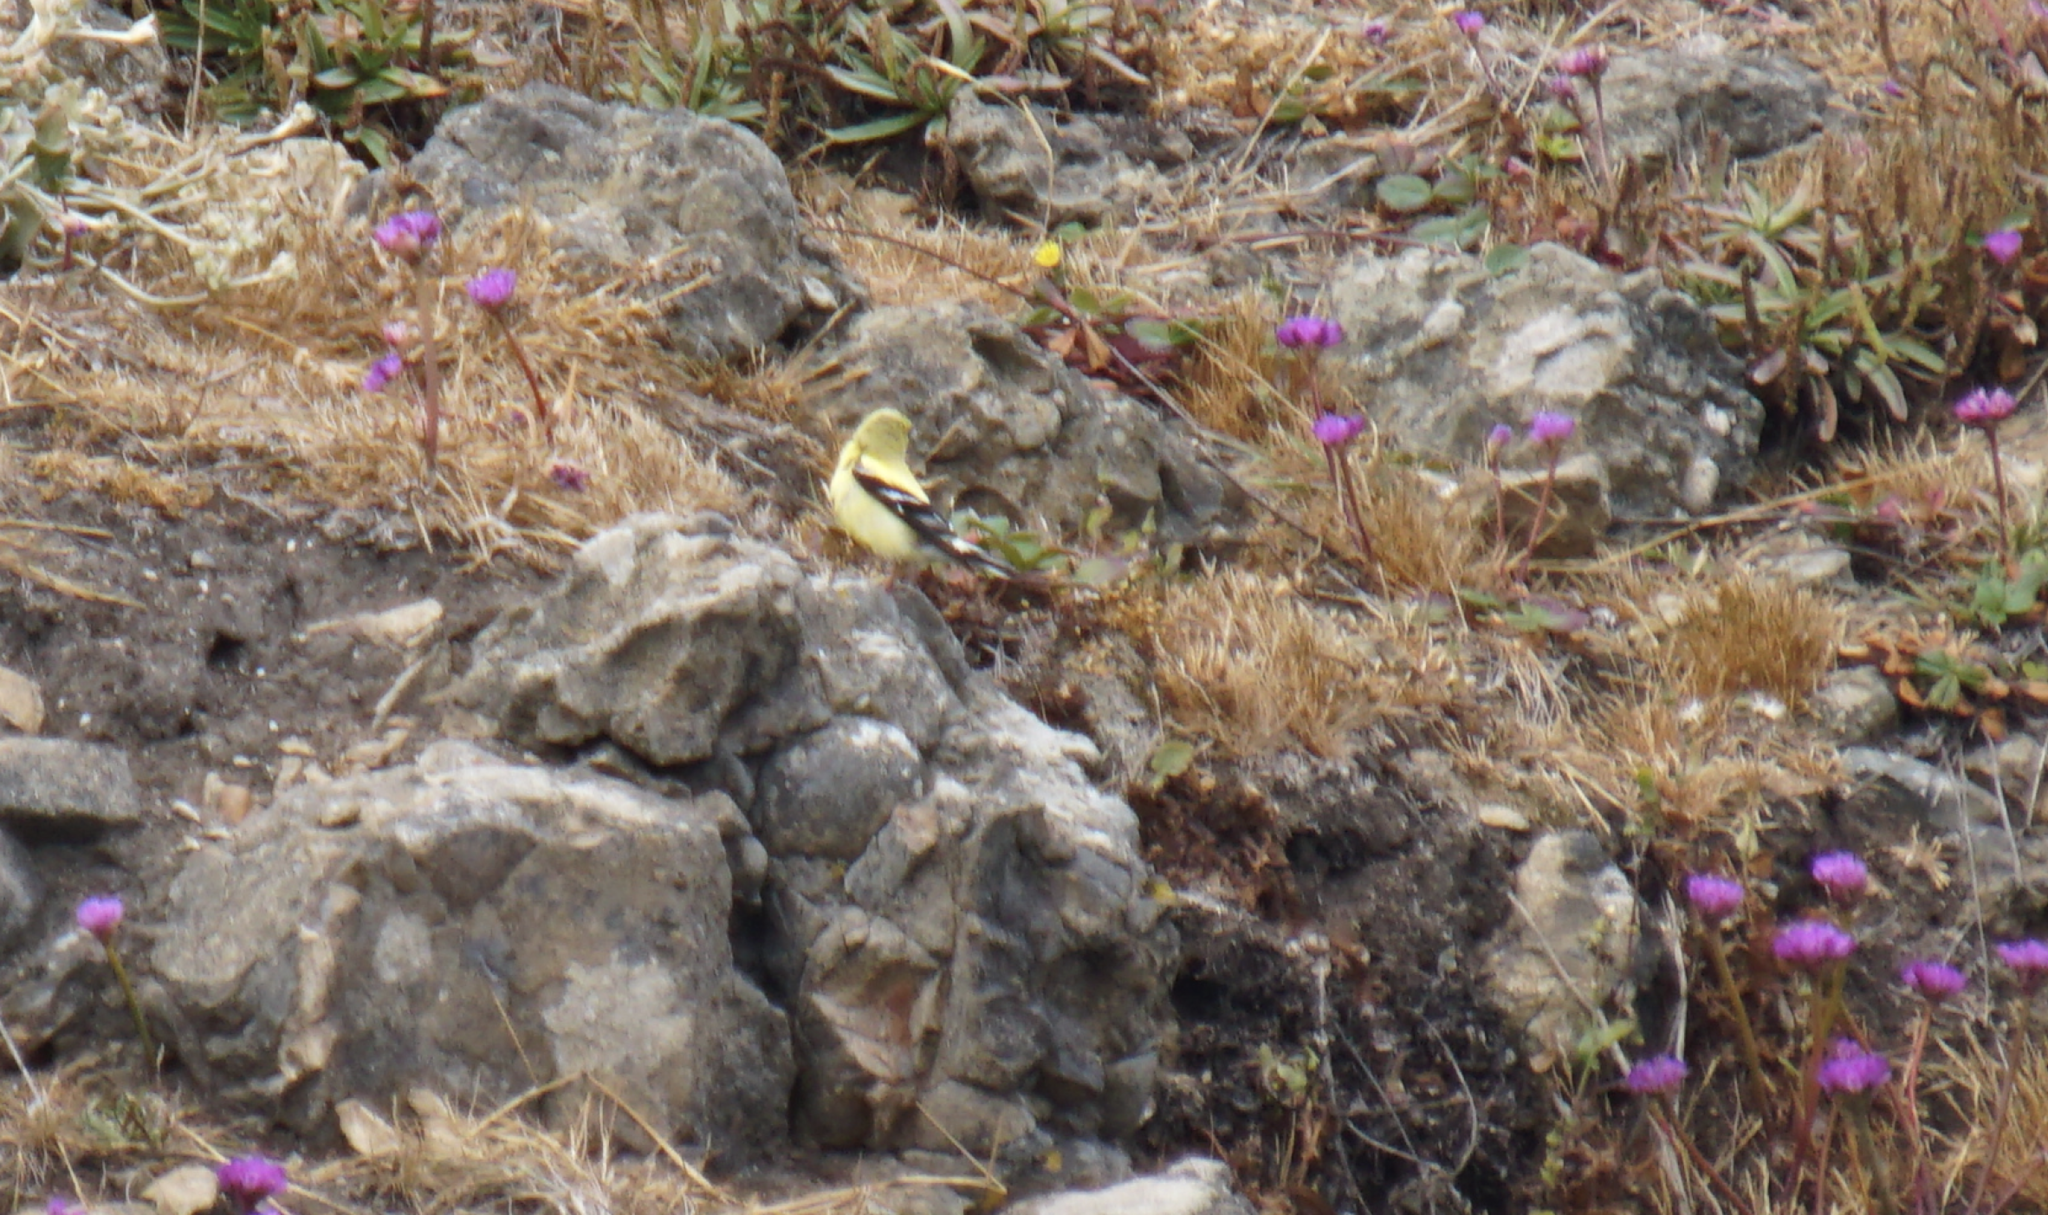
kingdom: Animalia
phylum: Chordata
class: Aves
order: Passeriformes
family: Fringillidae
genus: Spinus
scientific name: Spinus tristis
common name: American goldfinch
